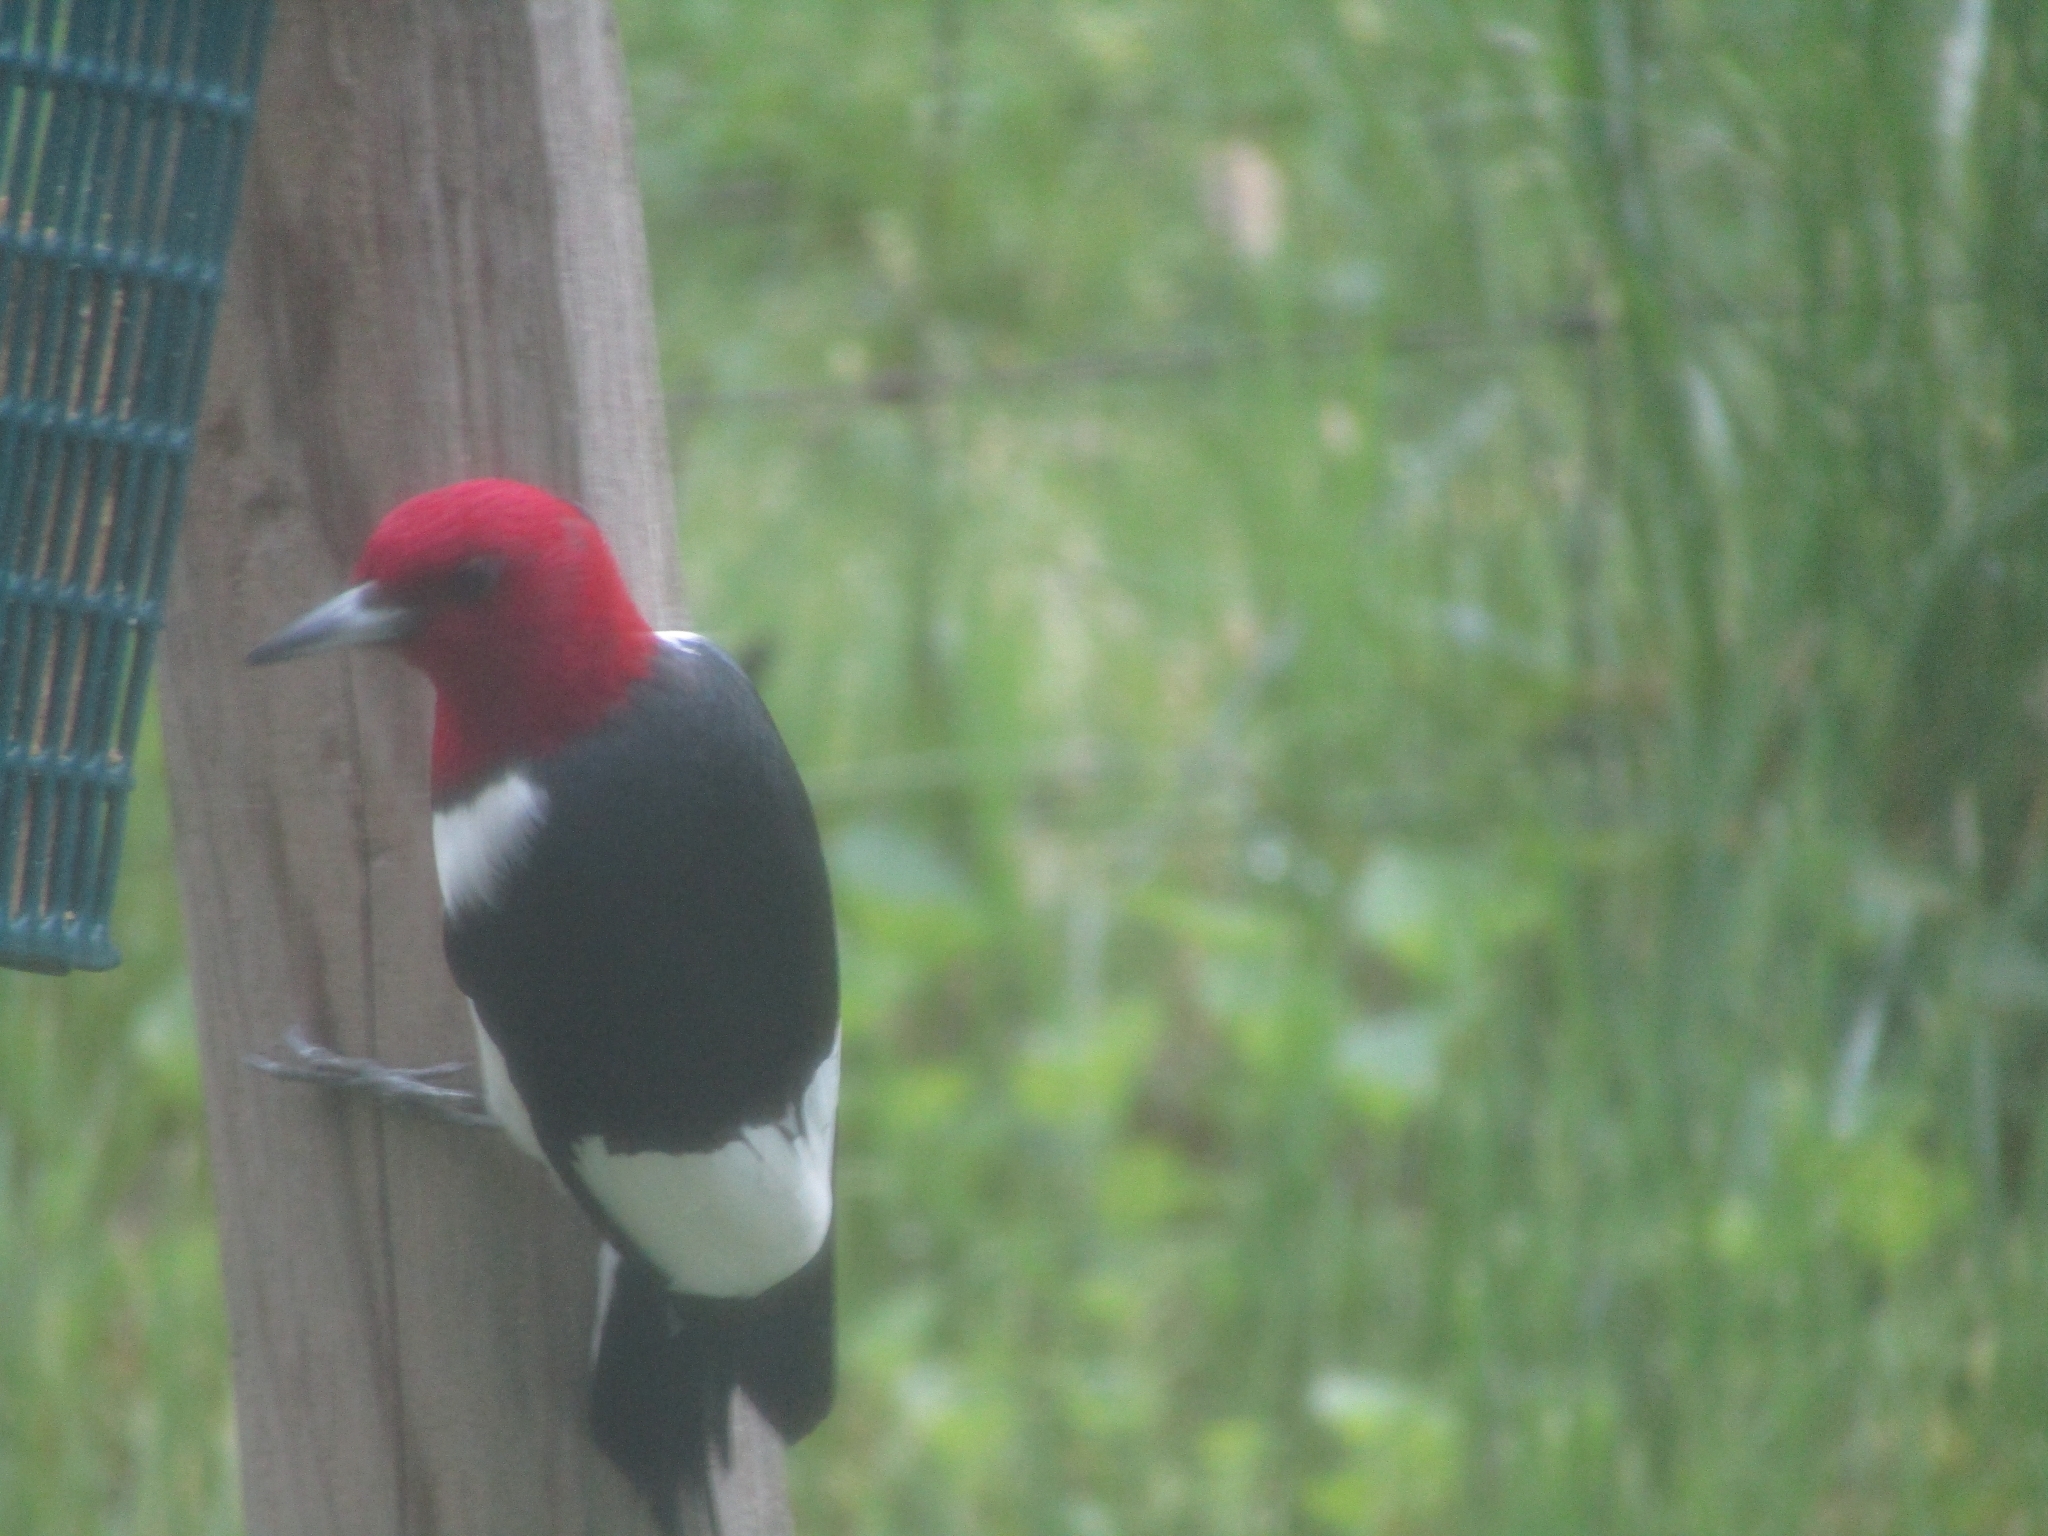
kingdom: Animalia
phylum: Chordata
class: Aves
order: Piciformes
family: Picidae
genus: Melanerpes
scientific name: Melanerpes erythrocephalus
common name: Red-headed woodpecker
